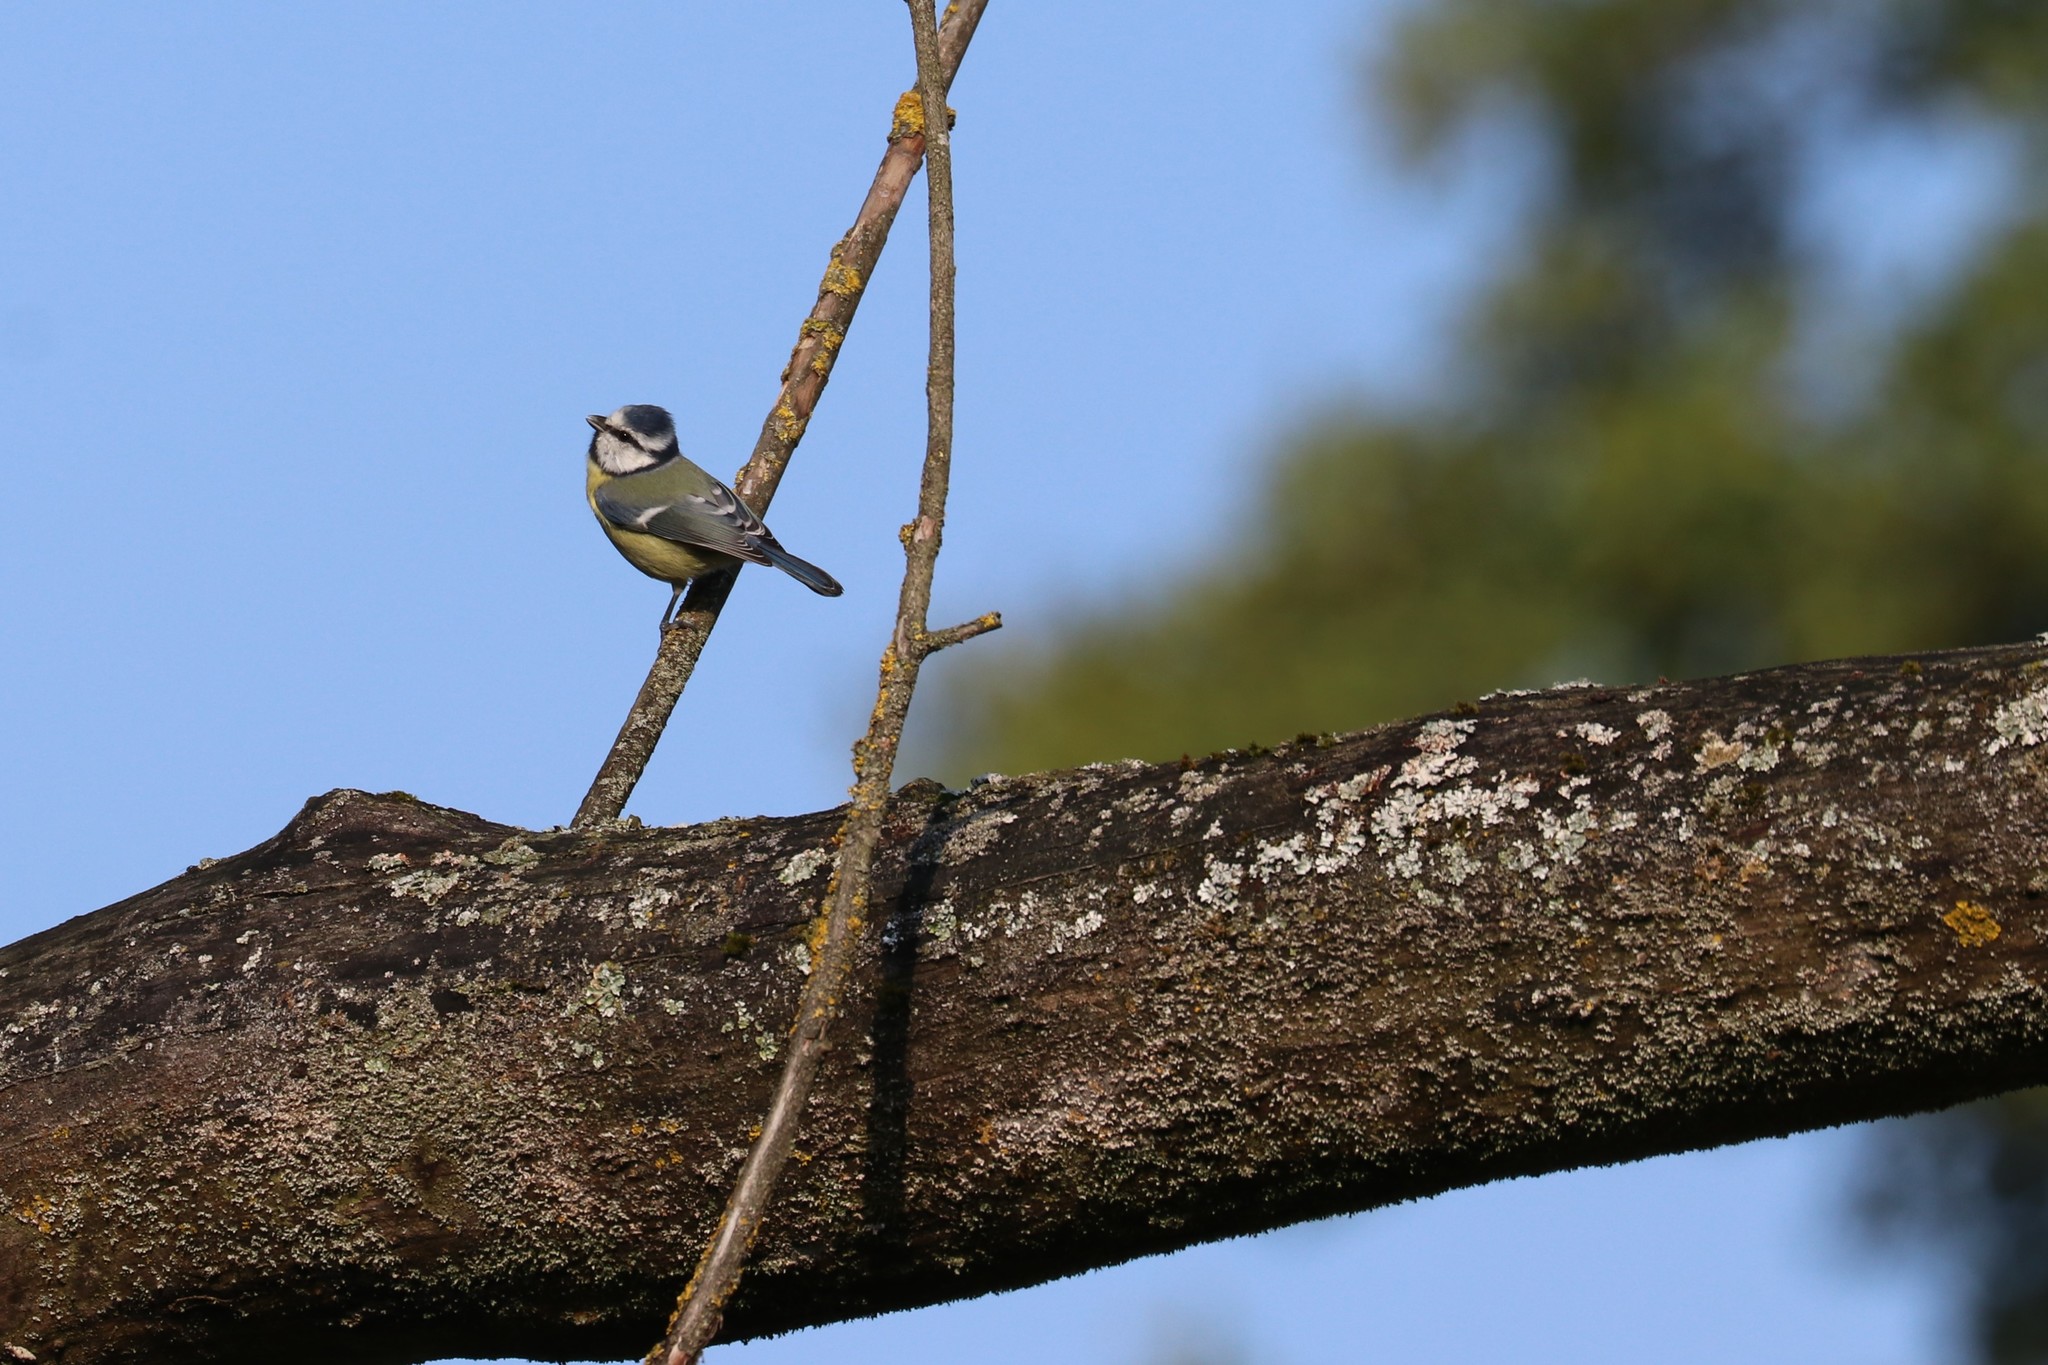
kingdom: Animalia
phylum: Chordata
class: Aves
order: Passeriformes
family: Paridae
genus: Cyanistes
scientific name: Cyanistes caeruleus
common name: Eurasian blue tit
